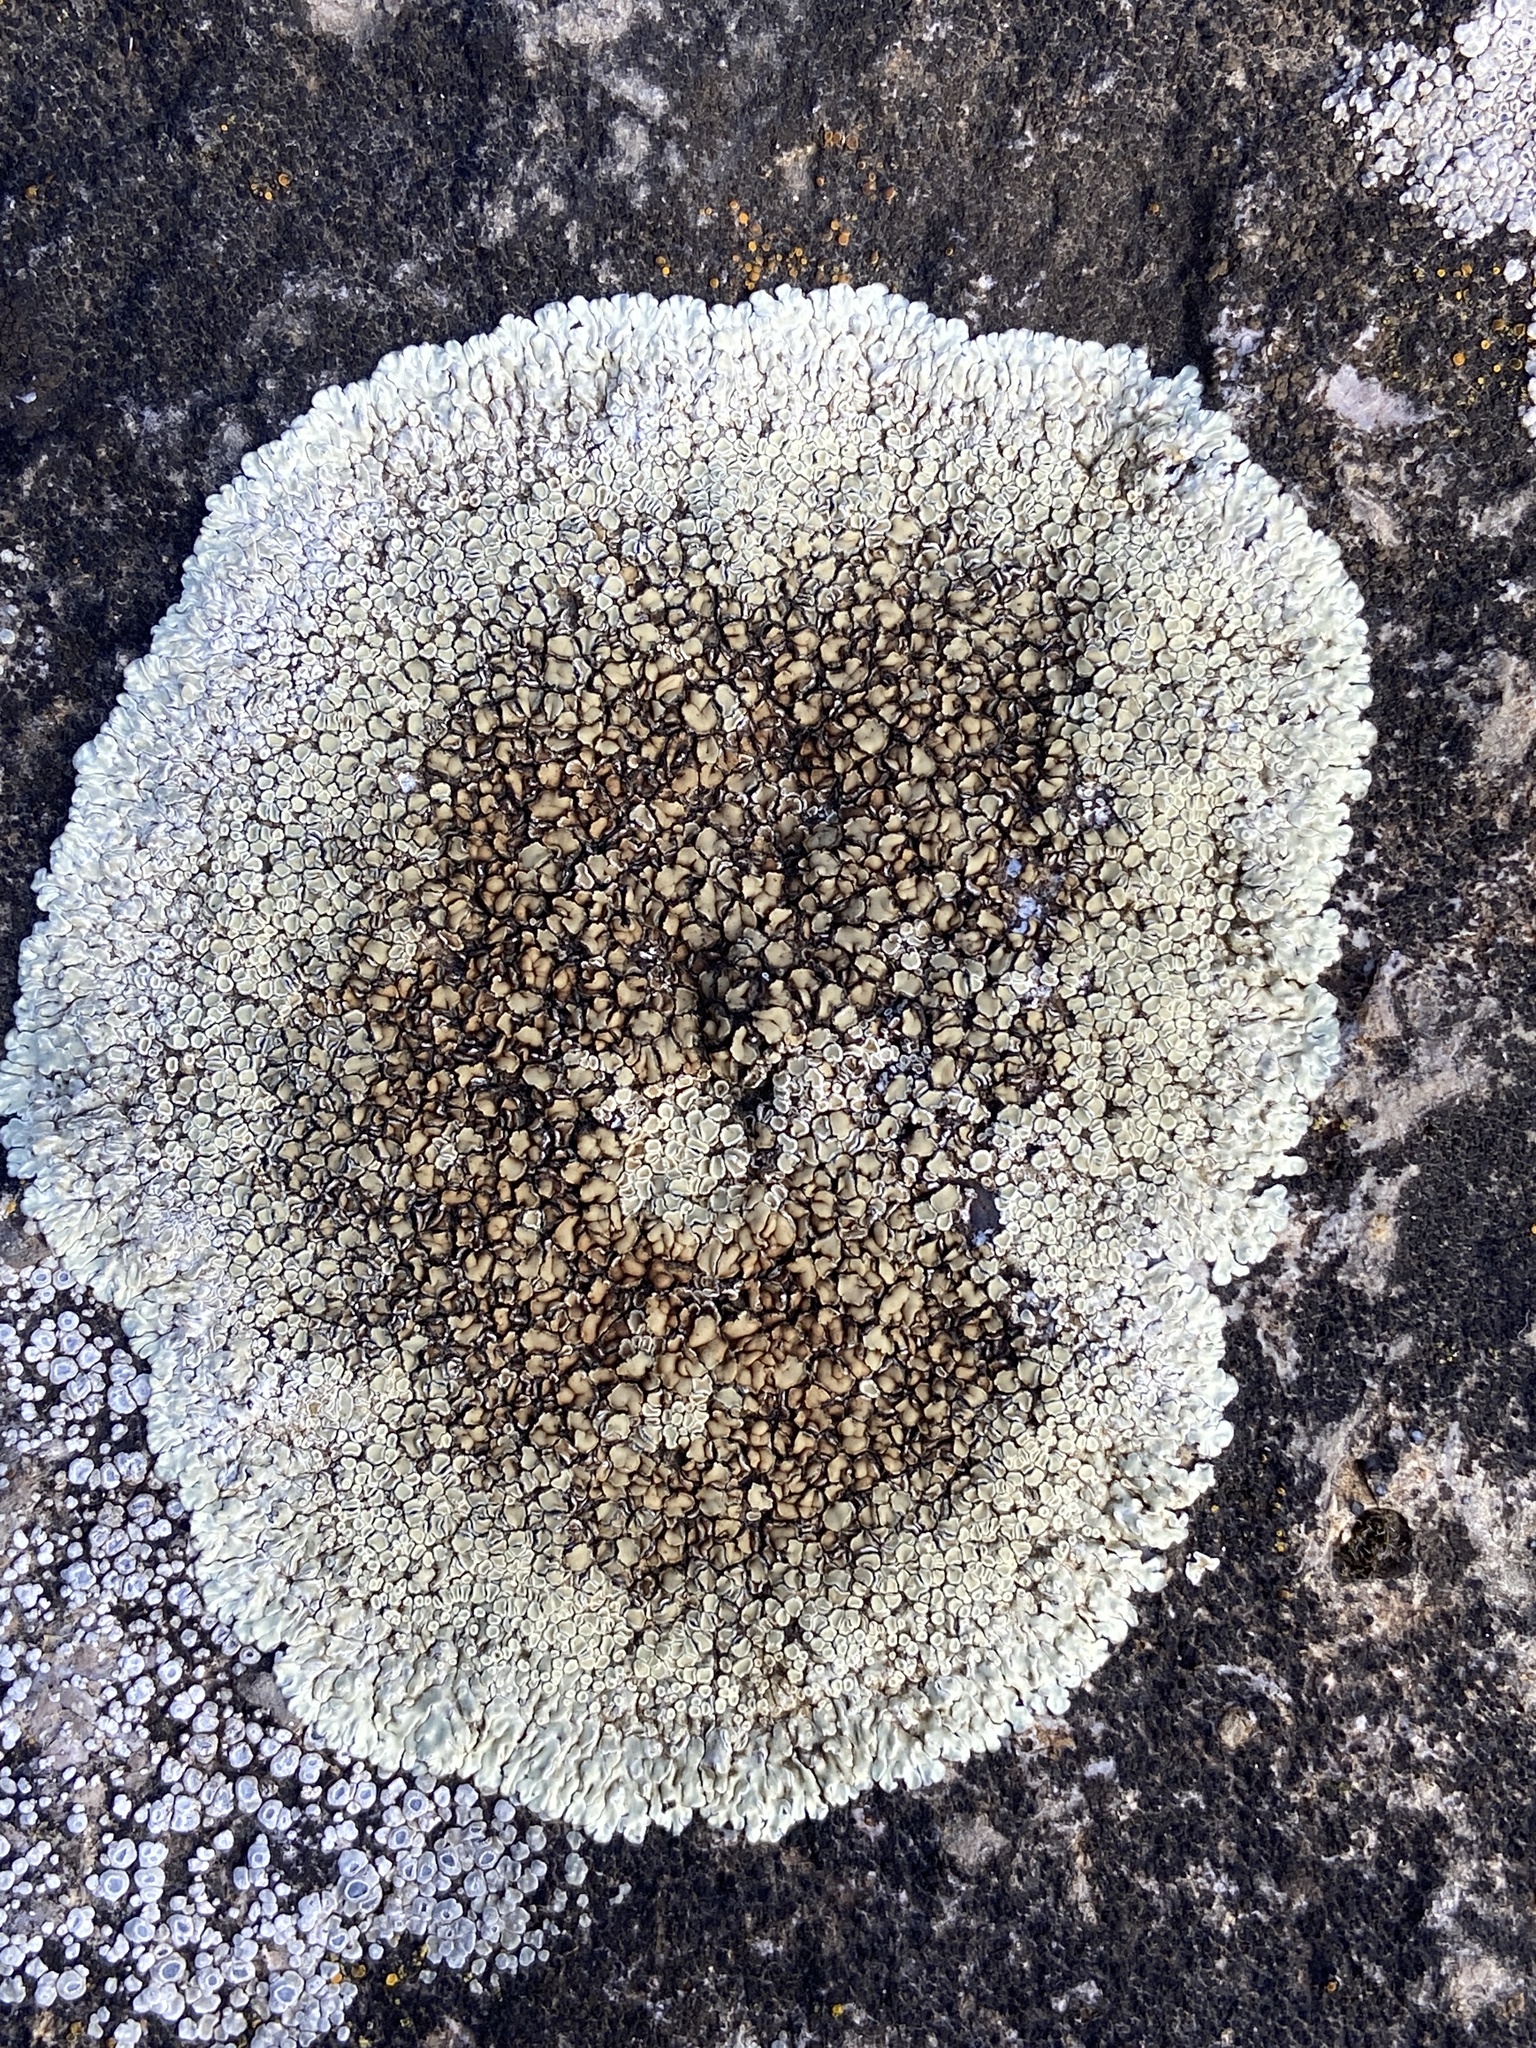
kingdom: Fungi
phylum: Ascomycota
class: Lecanoromycetes
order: Lecanorales
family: Lecanoraceae
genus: Protoparmeliopsis
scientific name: Protoparmeliopsis muralis
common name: Stonewall rim lichen
